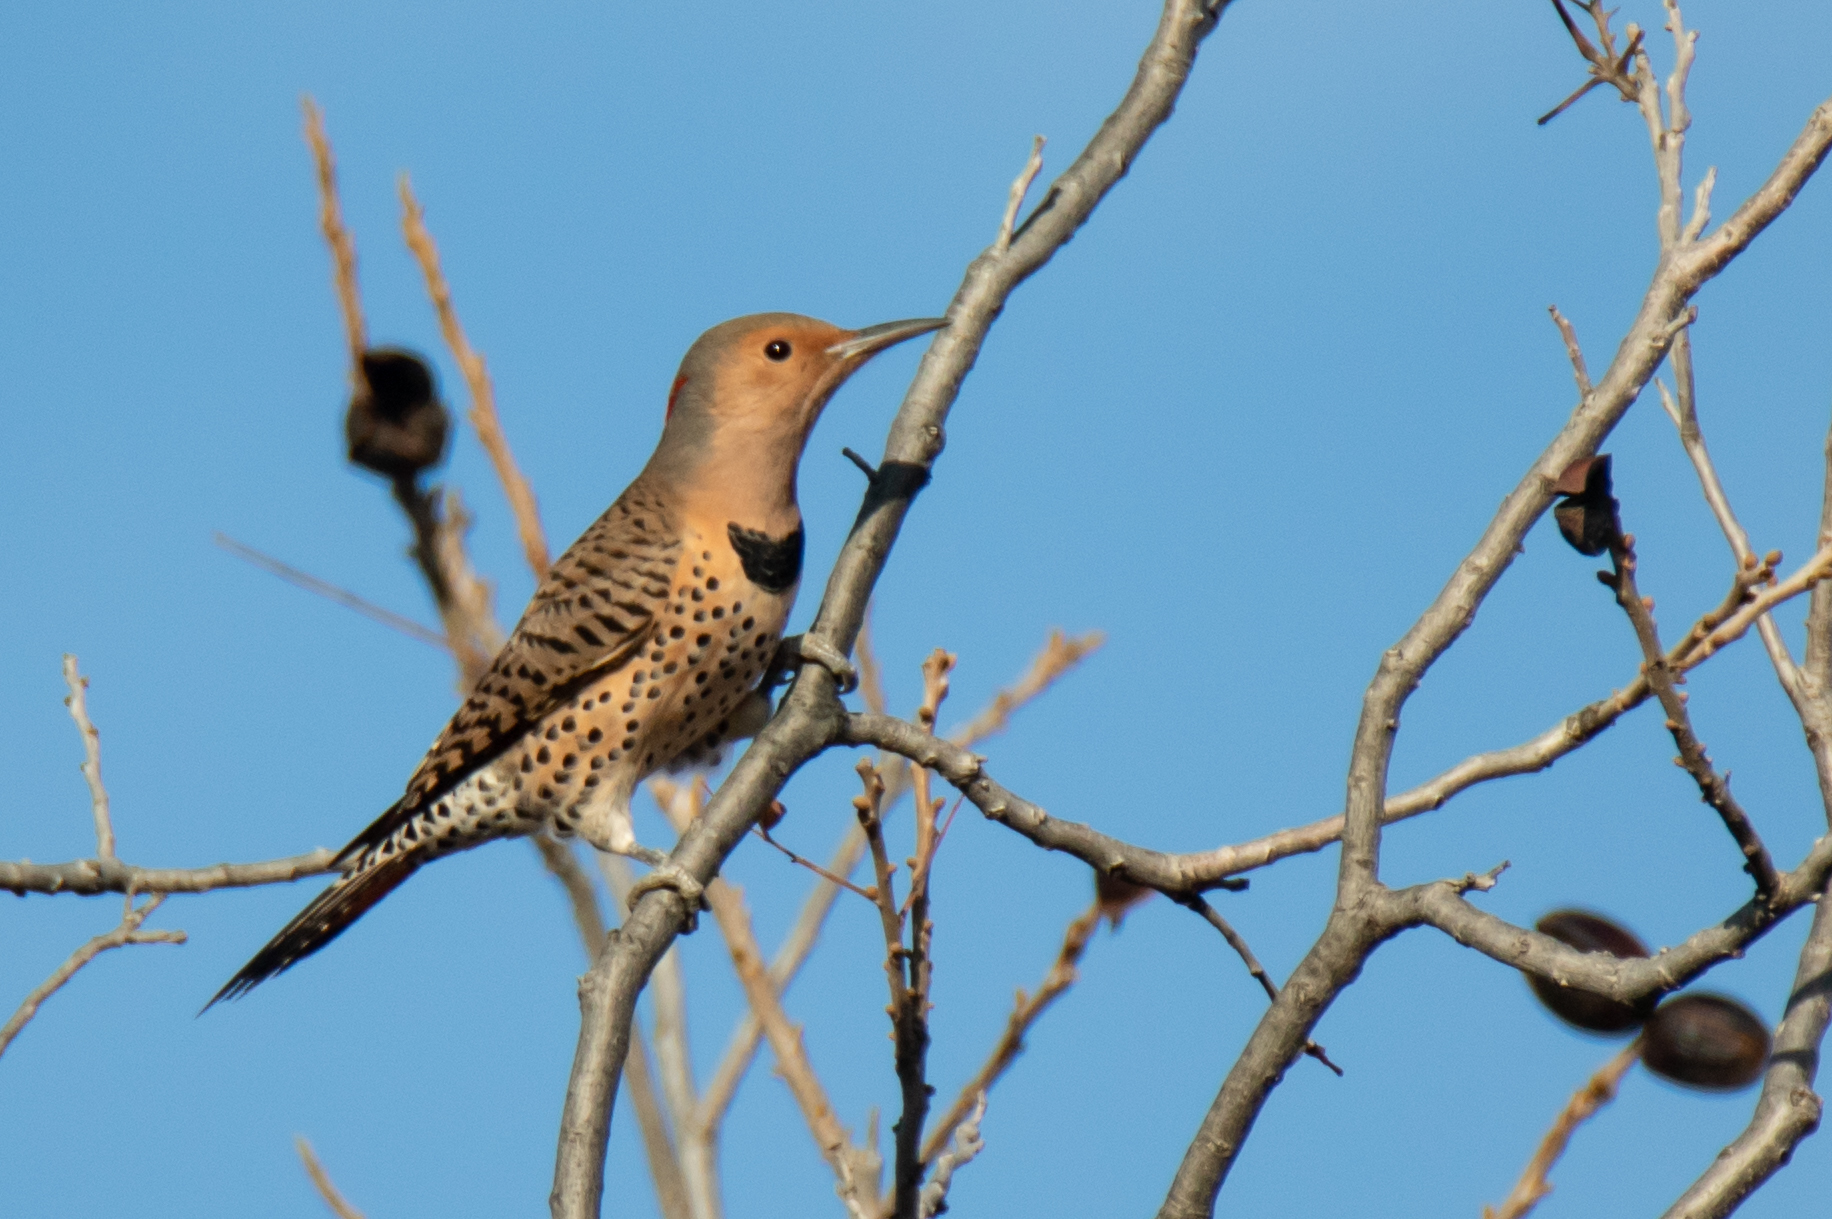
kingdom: Animalia
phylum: Chordata
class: Aves
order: Piciformes
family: Picidae
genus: Colaptes
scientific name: Colaptes auratus
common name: Northern flicker
